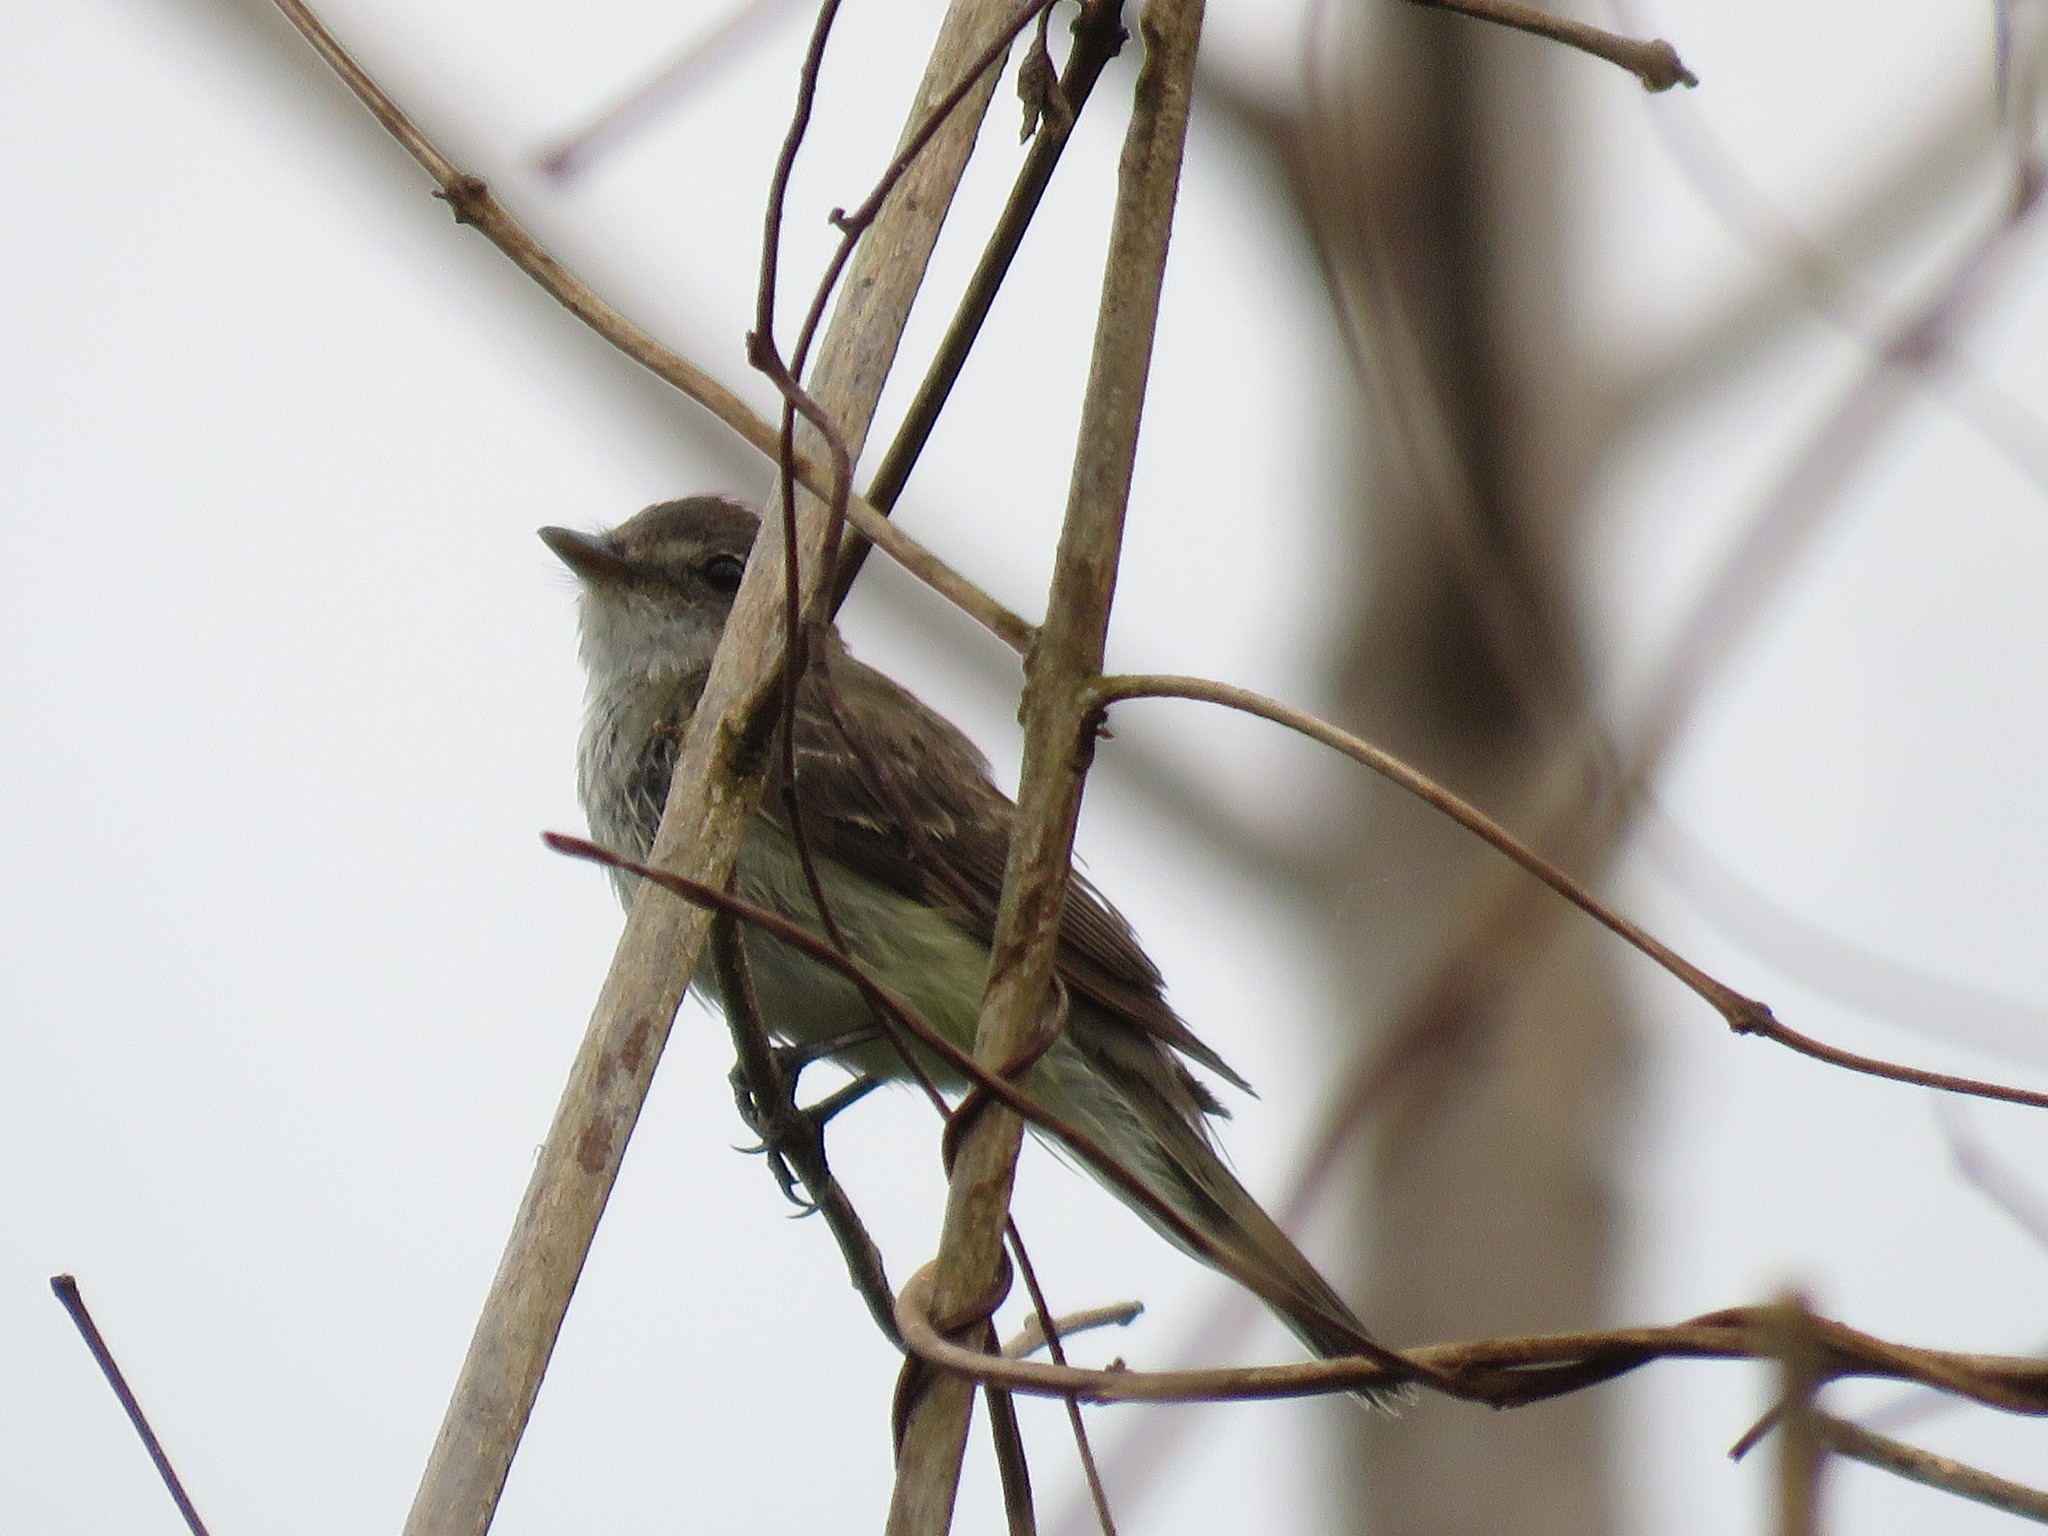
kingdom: Animalia
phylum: Chordata
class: Aves
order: Passeriformes
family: Tyrannidae
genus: Empidonax
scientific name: Empidonax alnorum
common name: Alder flycatcher
